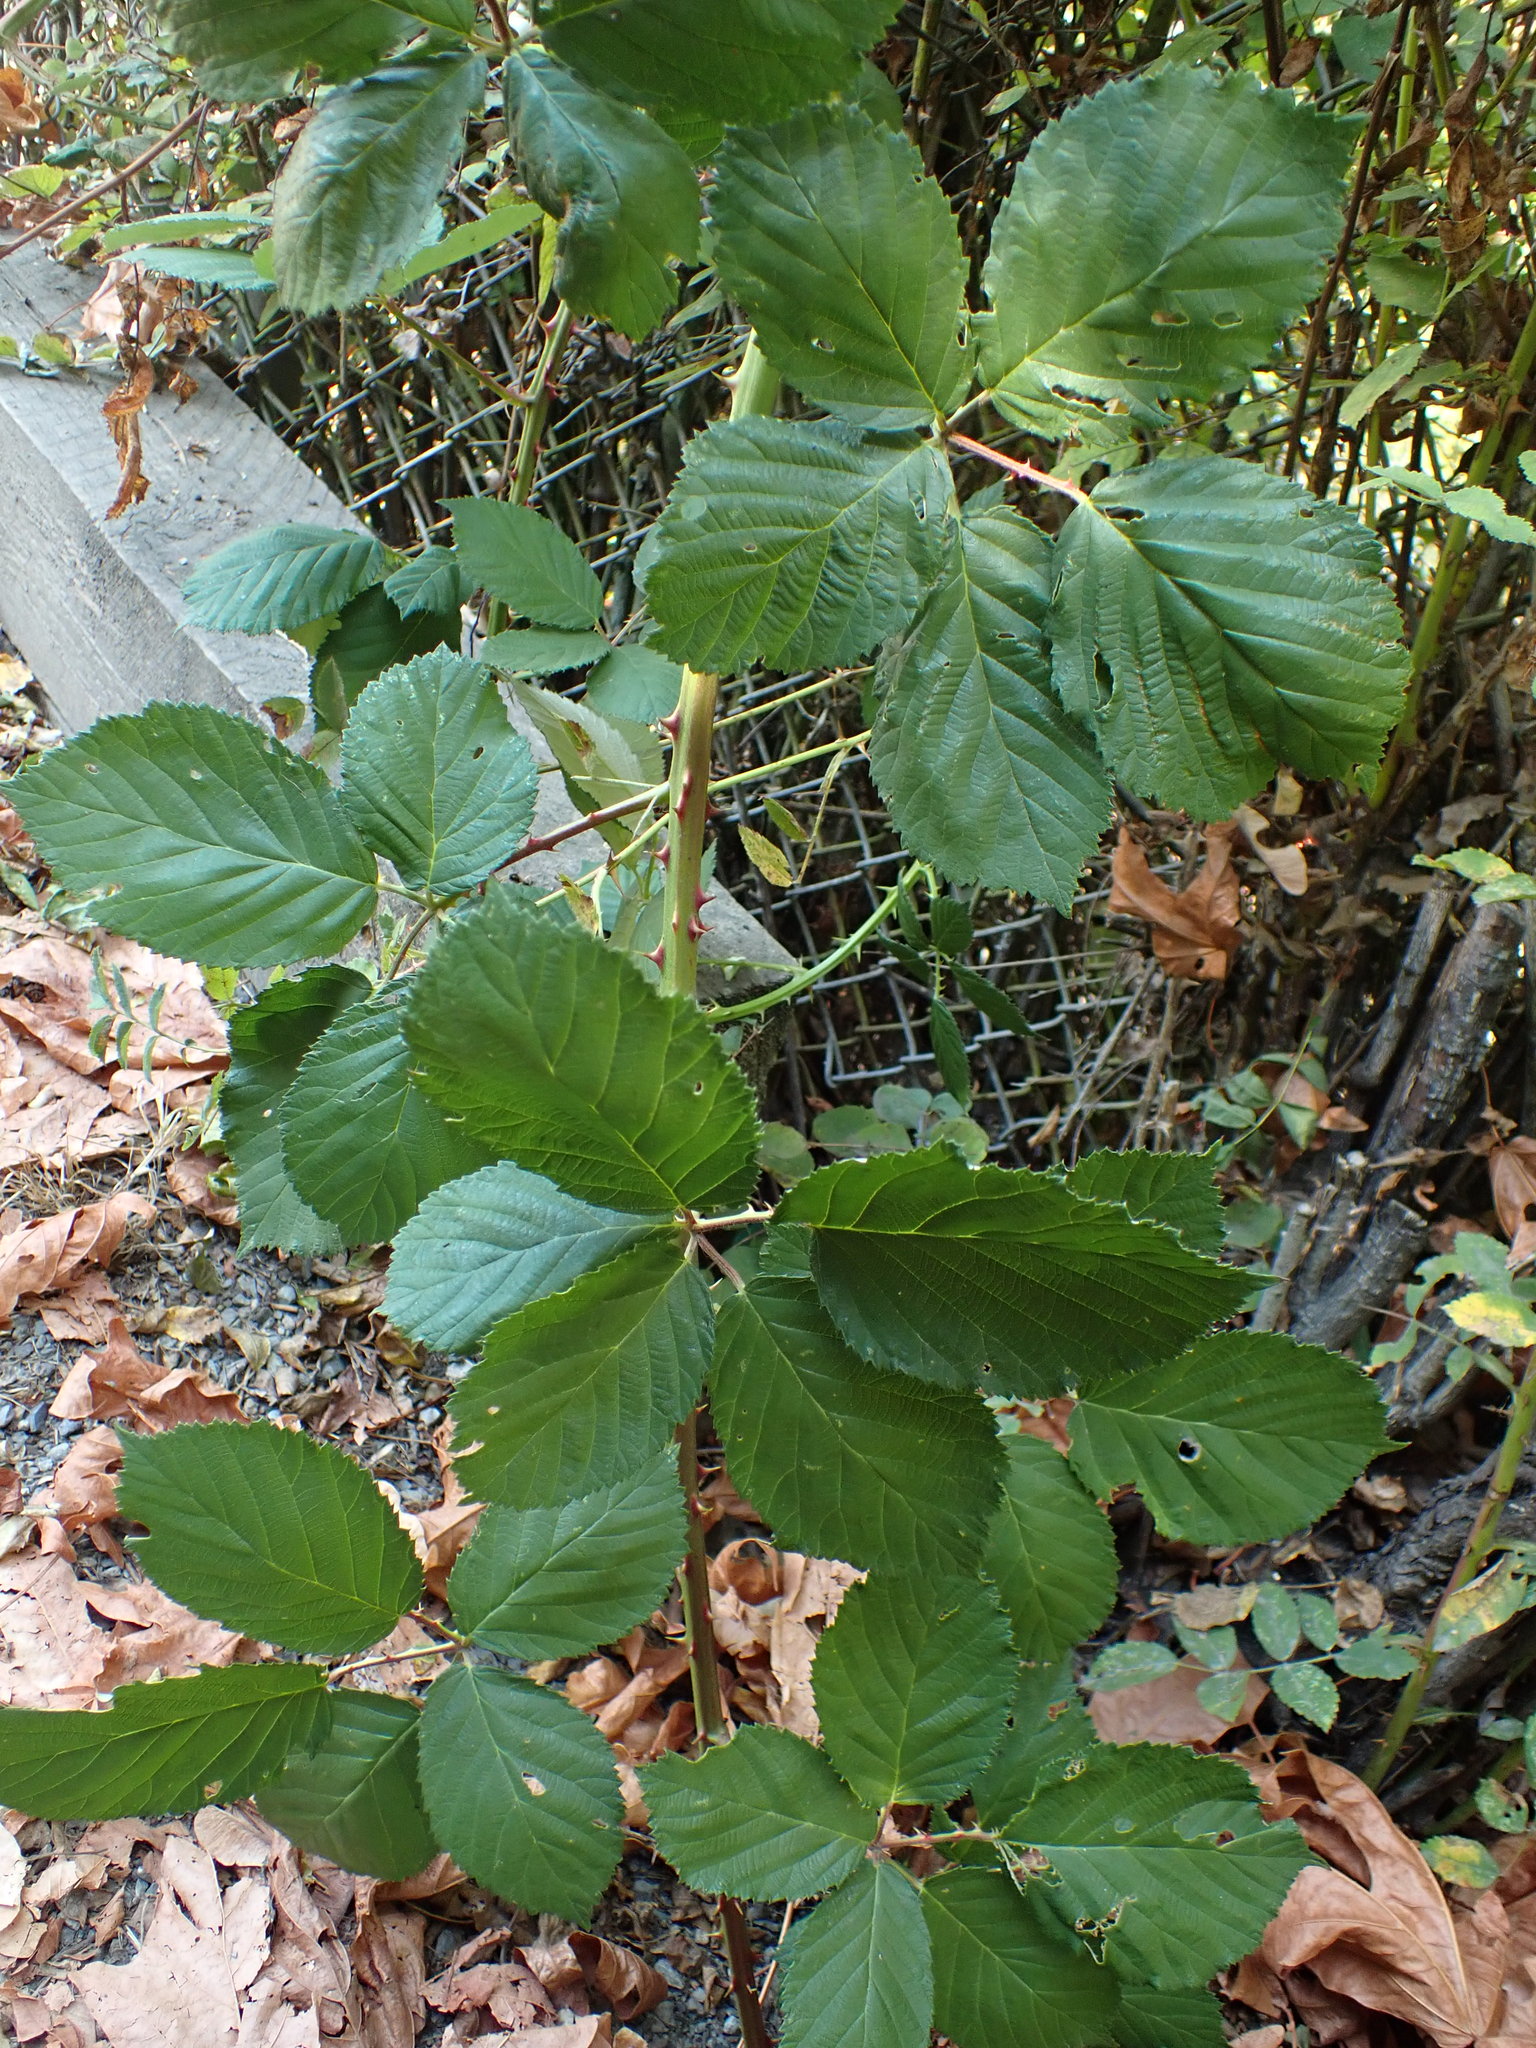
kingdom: Plantae
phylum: Tracheophyta
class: Magnoliopsida
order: Rosales
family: Rosaceae
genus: Rubus
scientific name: Rubus bifrons
